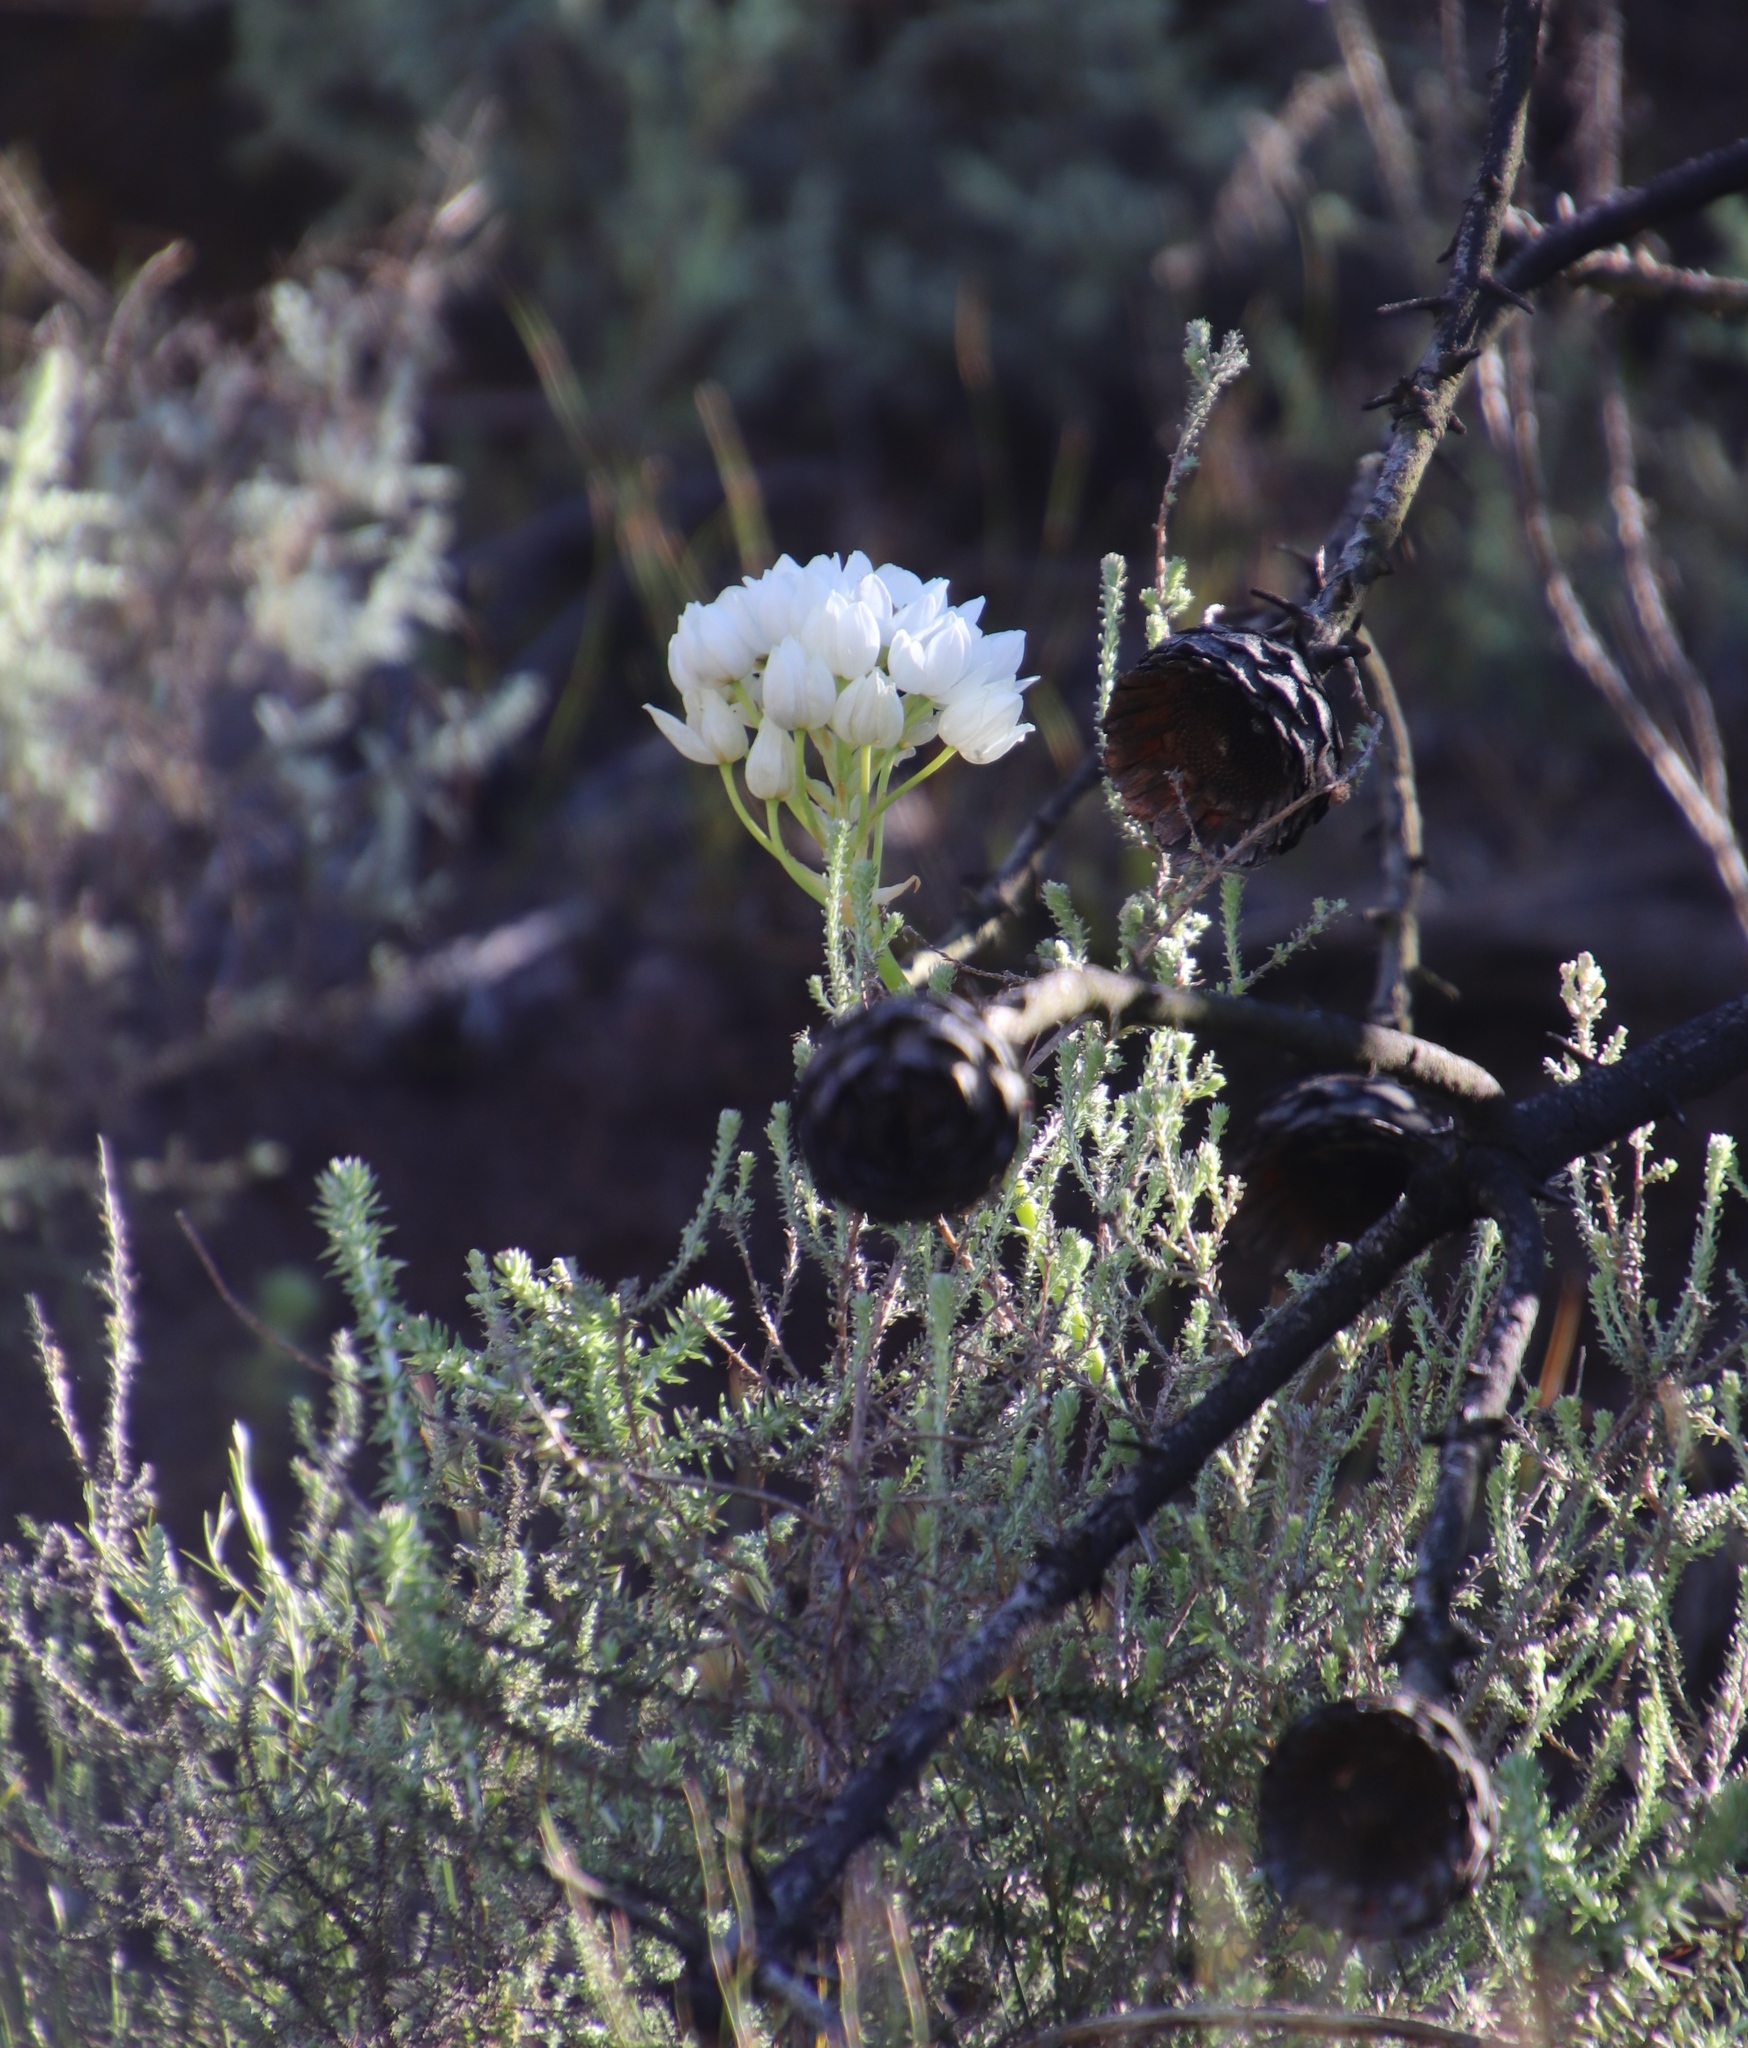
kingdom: Plantae
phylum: Tracheophyta
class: Liliopsida
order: Asparagales
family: Asparagaceae
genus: Ornithogalum
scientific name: Ornithogalum thyrsoides
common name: Chincherinchee
